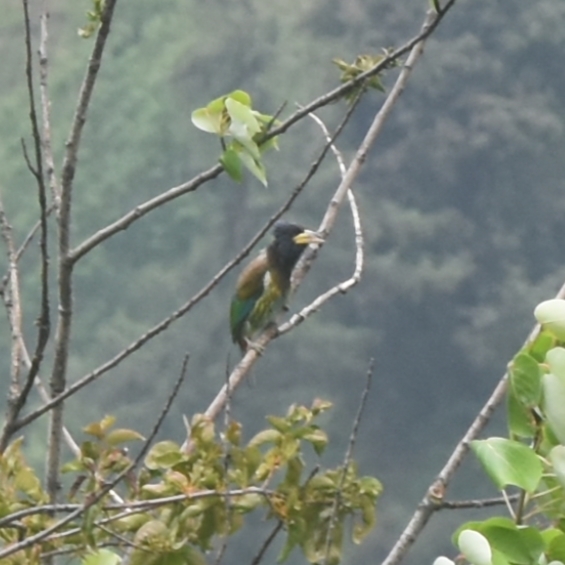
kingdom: Animalia
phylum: Chordata
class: Aves
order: Piciformes
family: Megalaimidae
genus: Psilopogon
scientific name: Psilopogon virens
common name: Great barbet
